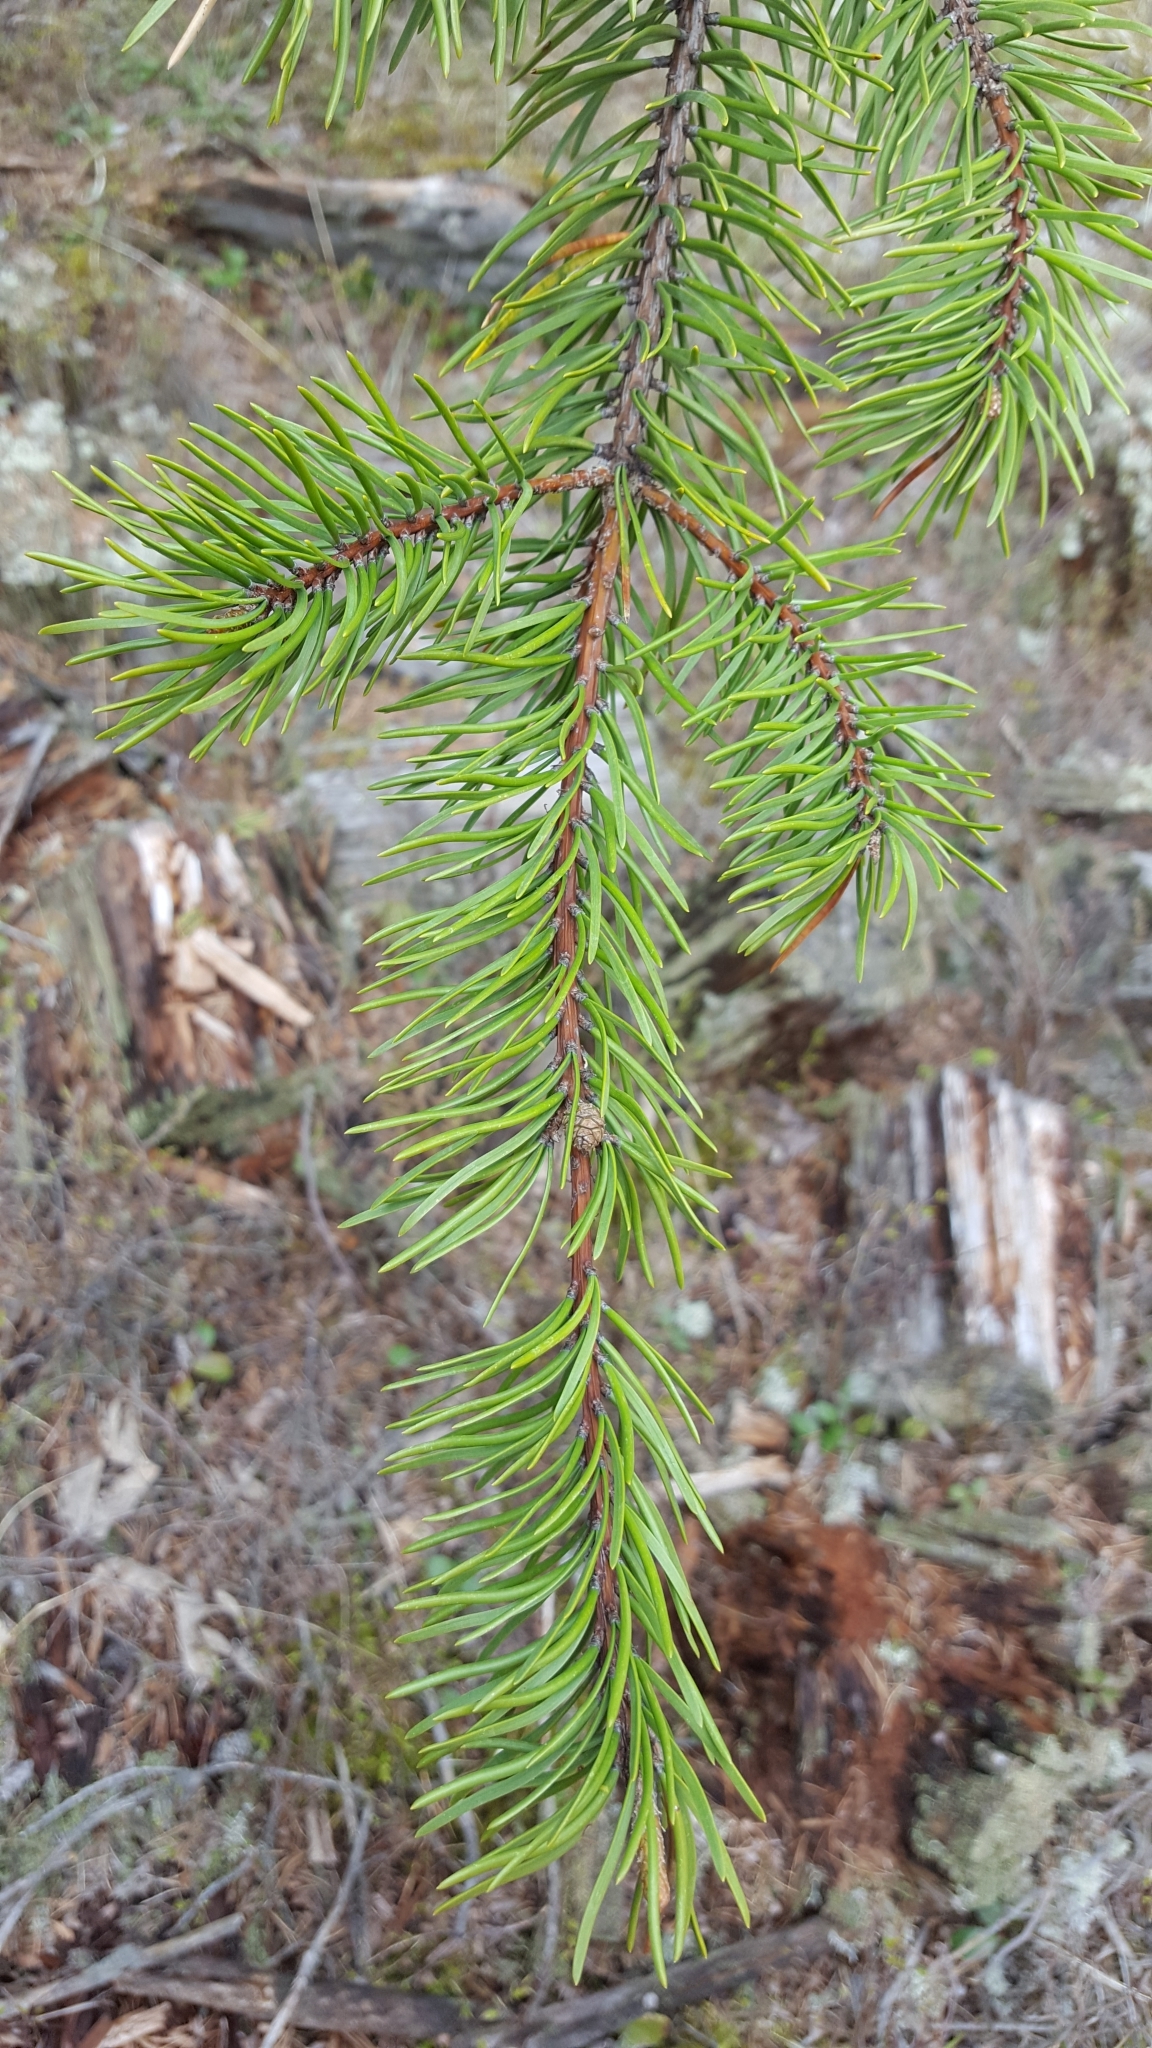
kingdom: Plantae
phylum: Tracheophyta
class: Pinopsida
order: Pinales
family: Pinaceae
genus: Pinus
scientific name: Pinus banksiana
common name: Jack pine
